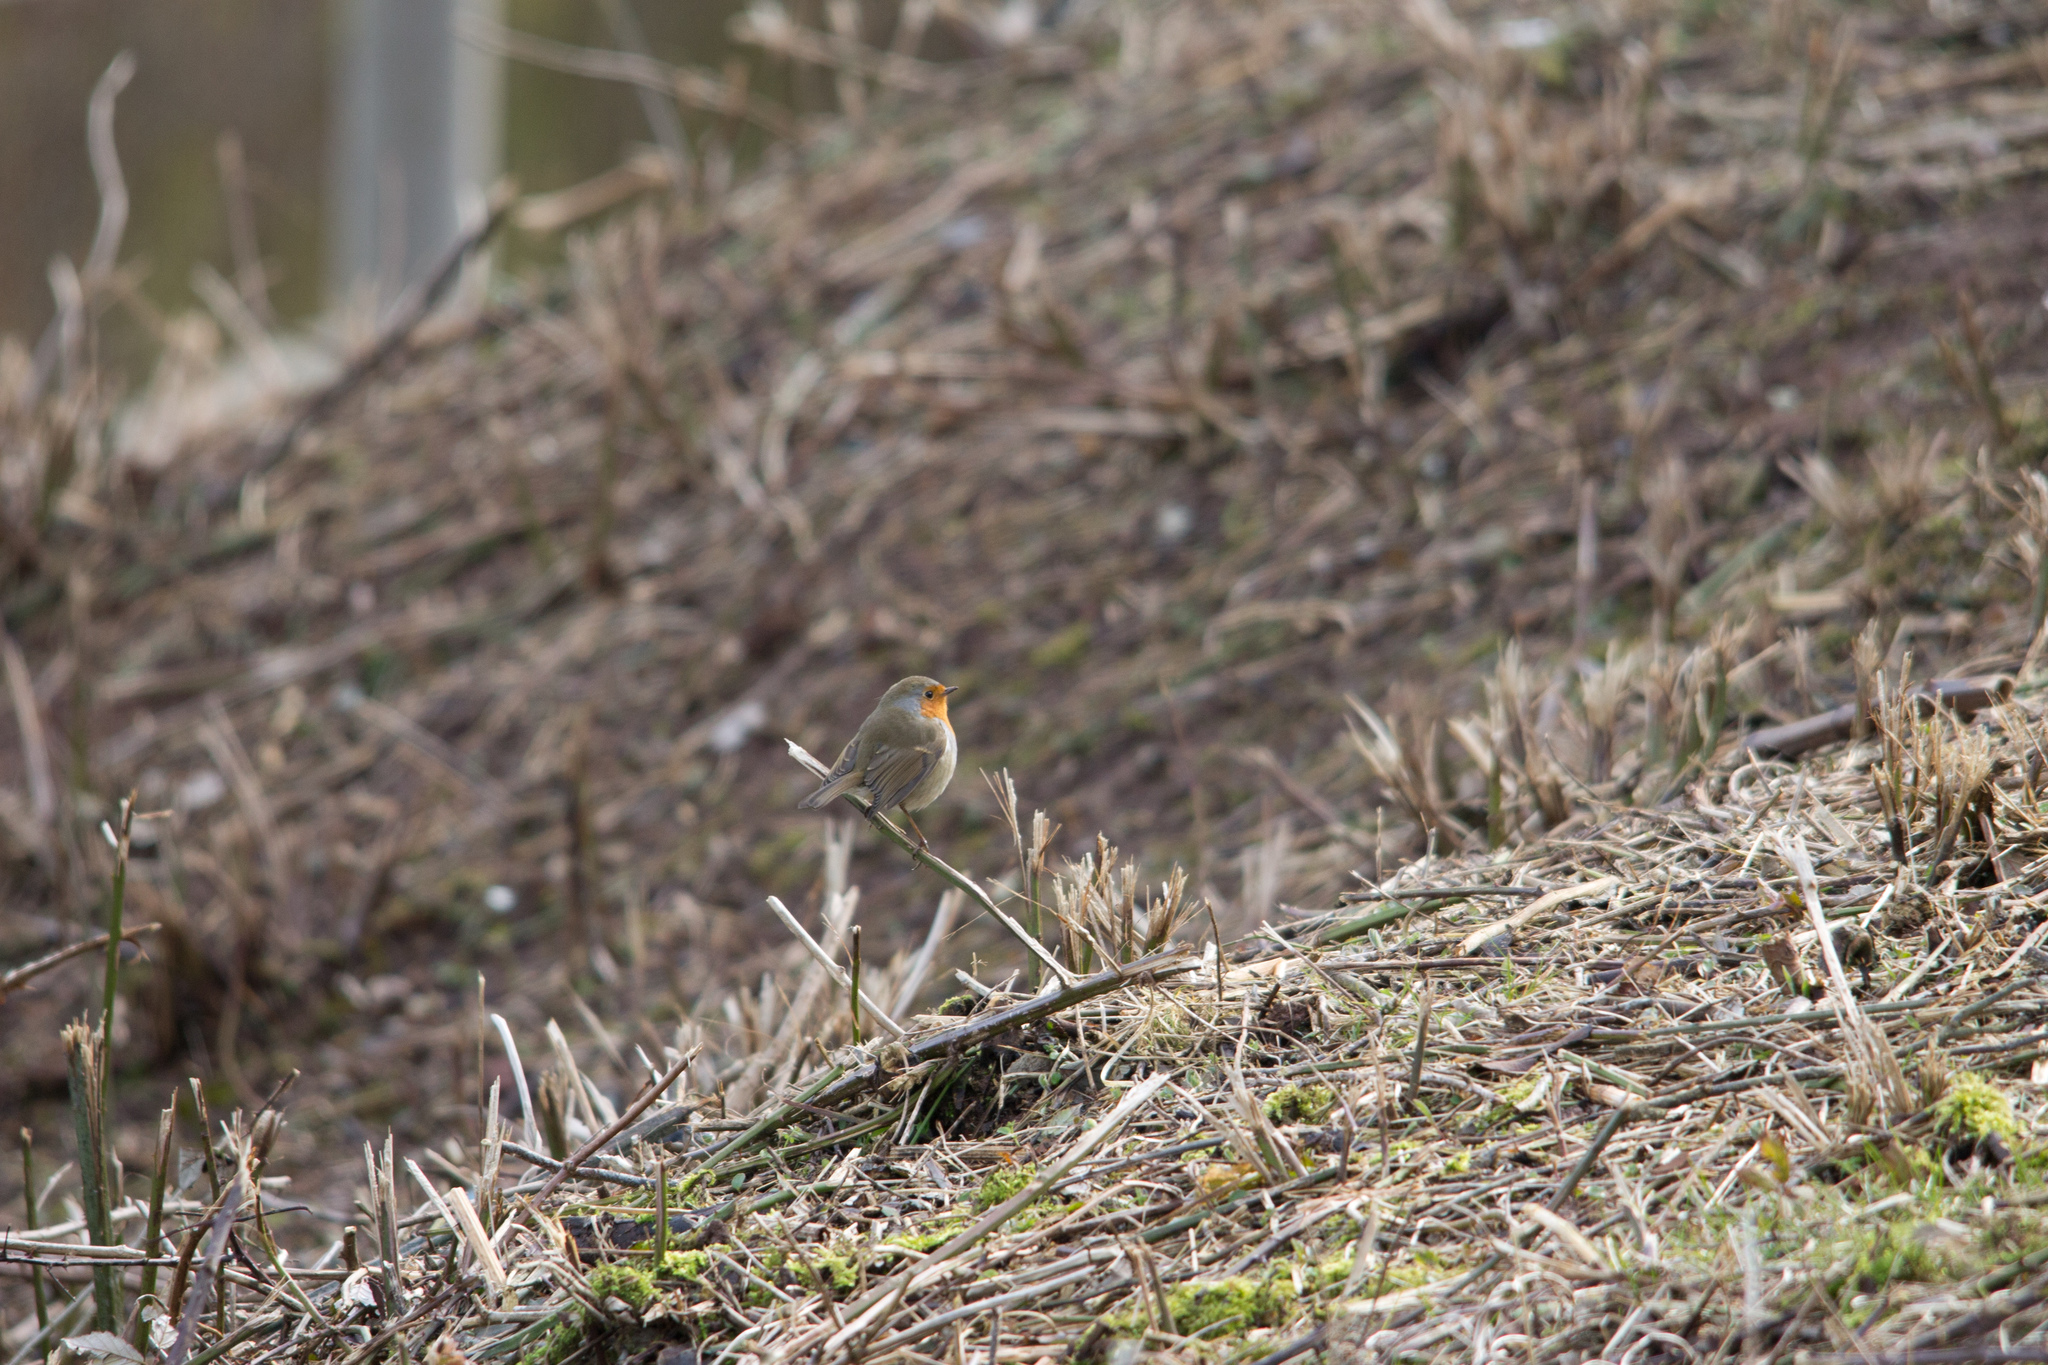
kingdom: Animalia
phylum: Chordata
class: Aves
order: Passeriformes
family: Muscicapidae
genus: Erithacus
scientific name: Erithacus rubecula
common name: European robin
